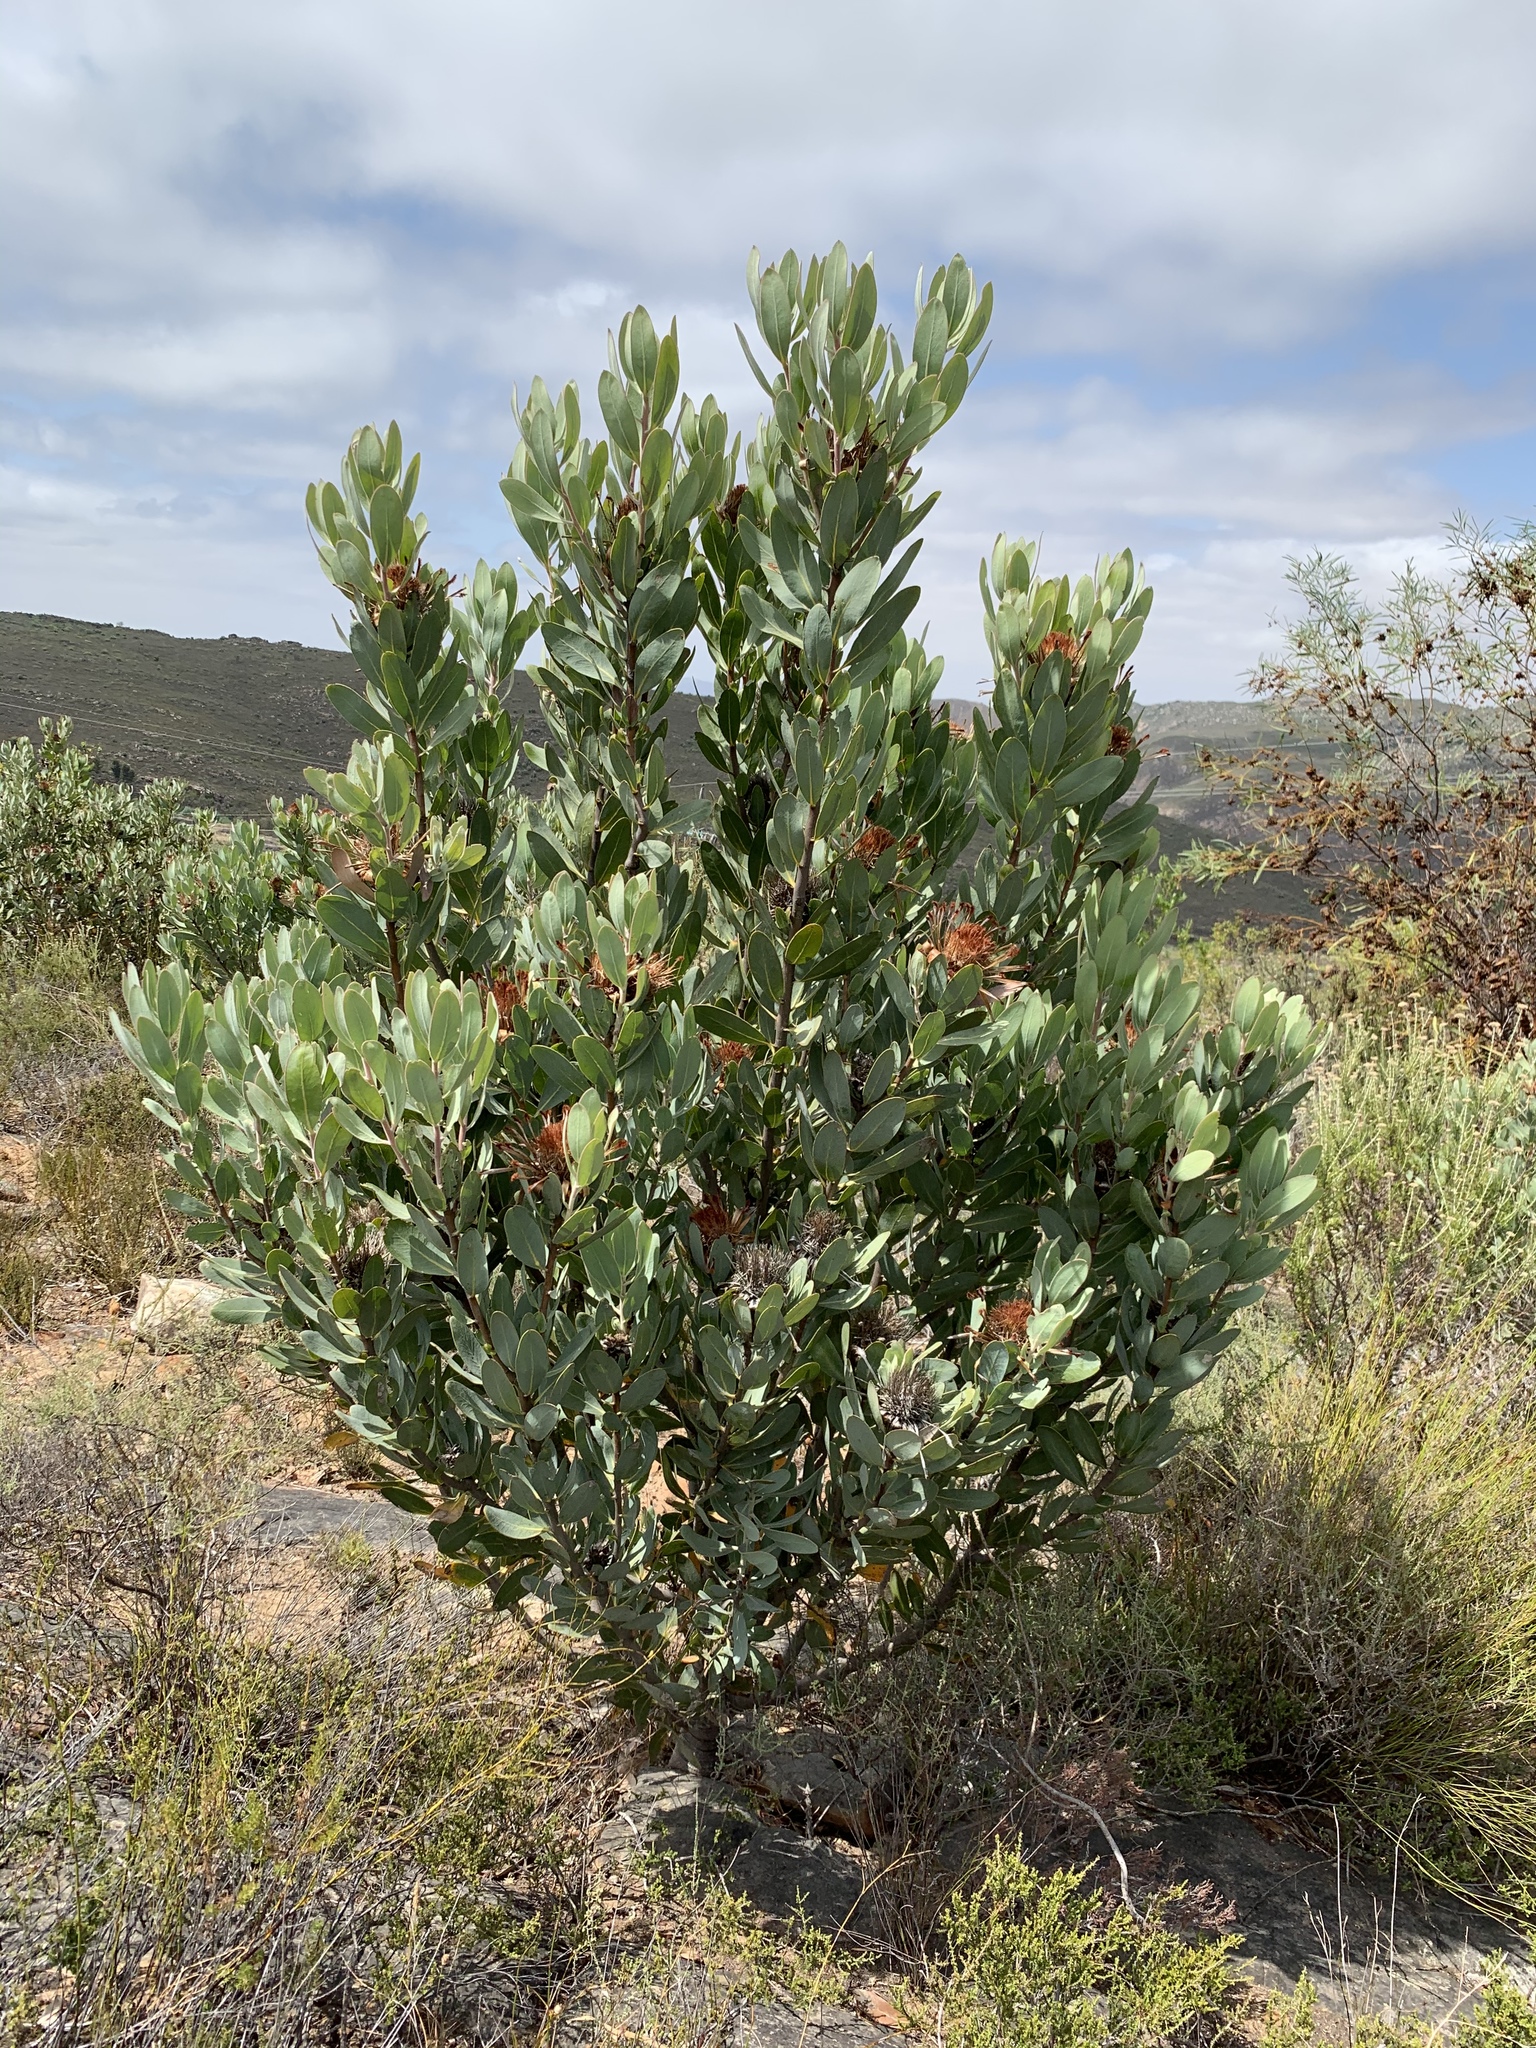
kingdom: Plantae
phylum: Tracheophyta
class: Magnoliopsida
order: Proteales
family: Proteaceae
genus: Protea
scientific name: Protea laurifolia
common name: Grey-leaf sugarbsh
